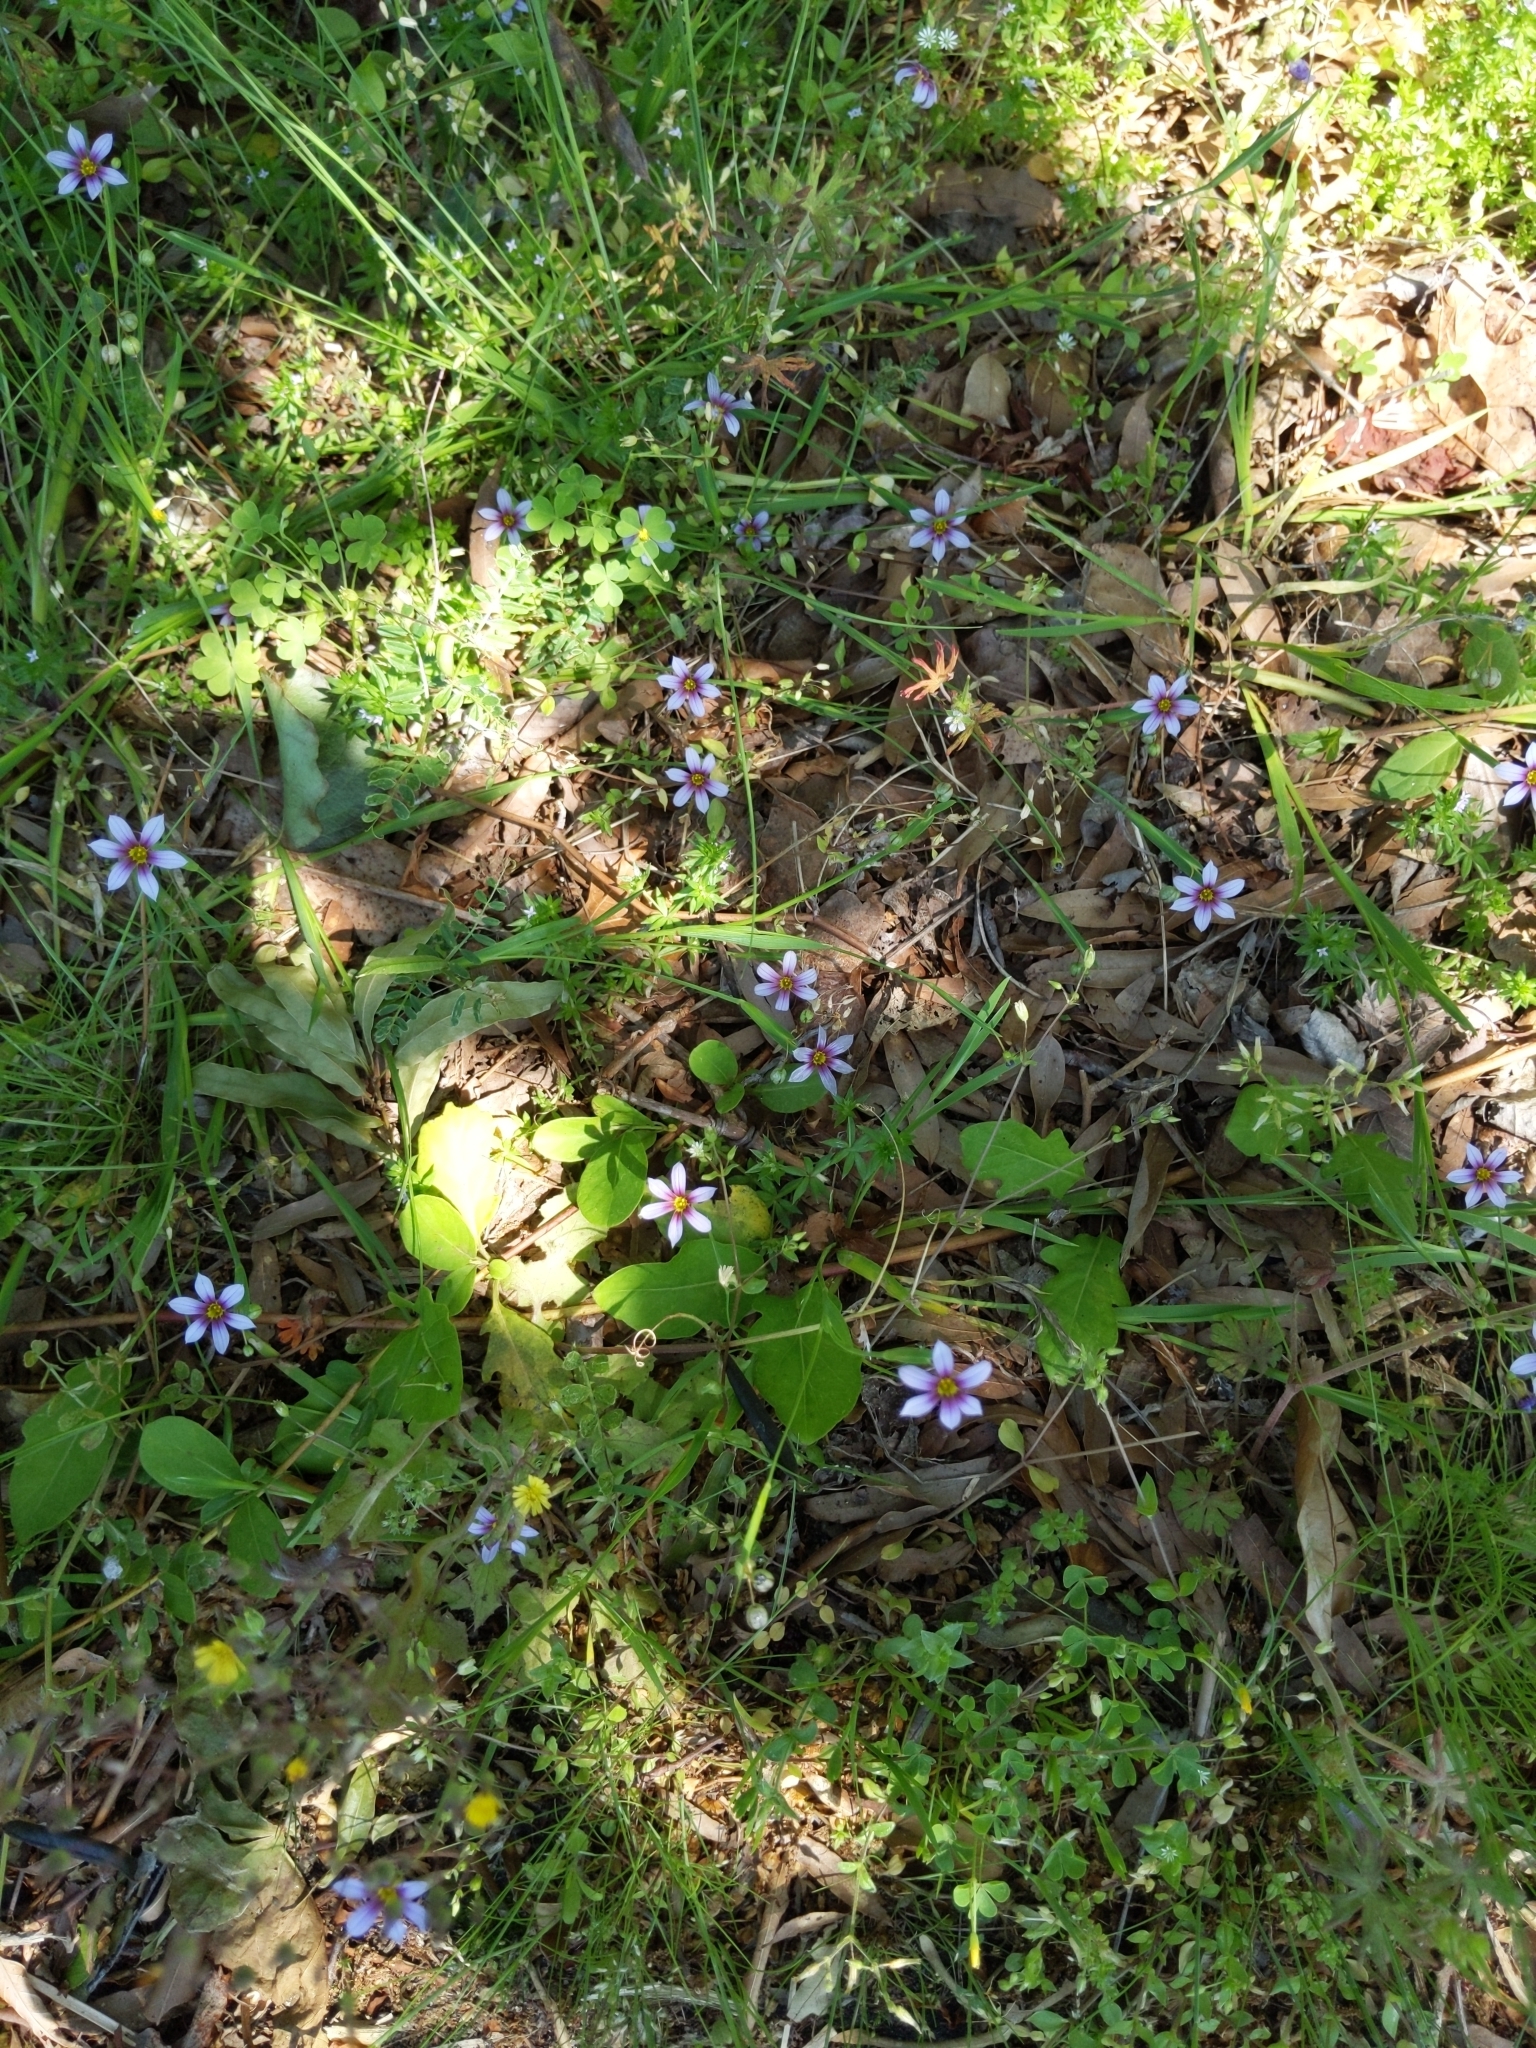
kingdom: Plantae
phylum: Tracheophyta
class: Liliopsida
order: Asparagales
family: Iridaceae
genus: Sisyrinchium
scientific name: Sisyrinchium angustifolium
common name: Narrow-leaf blue-eyed-grass
